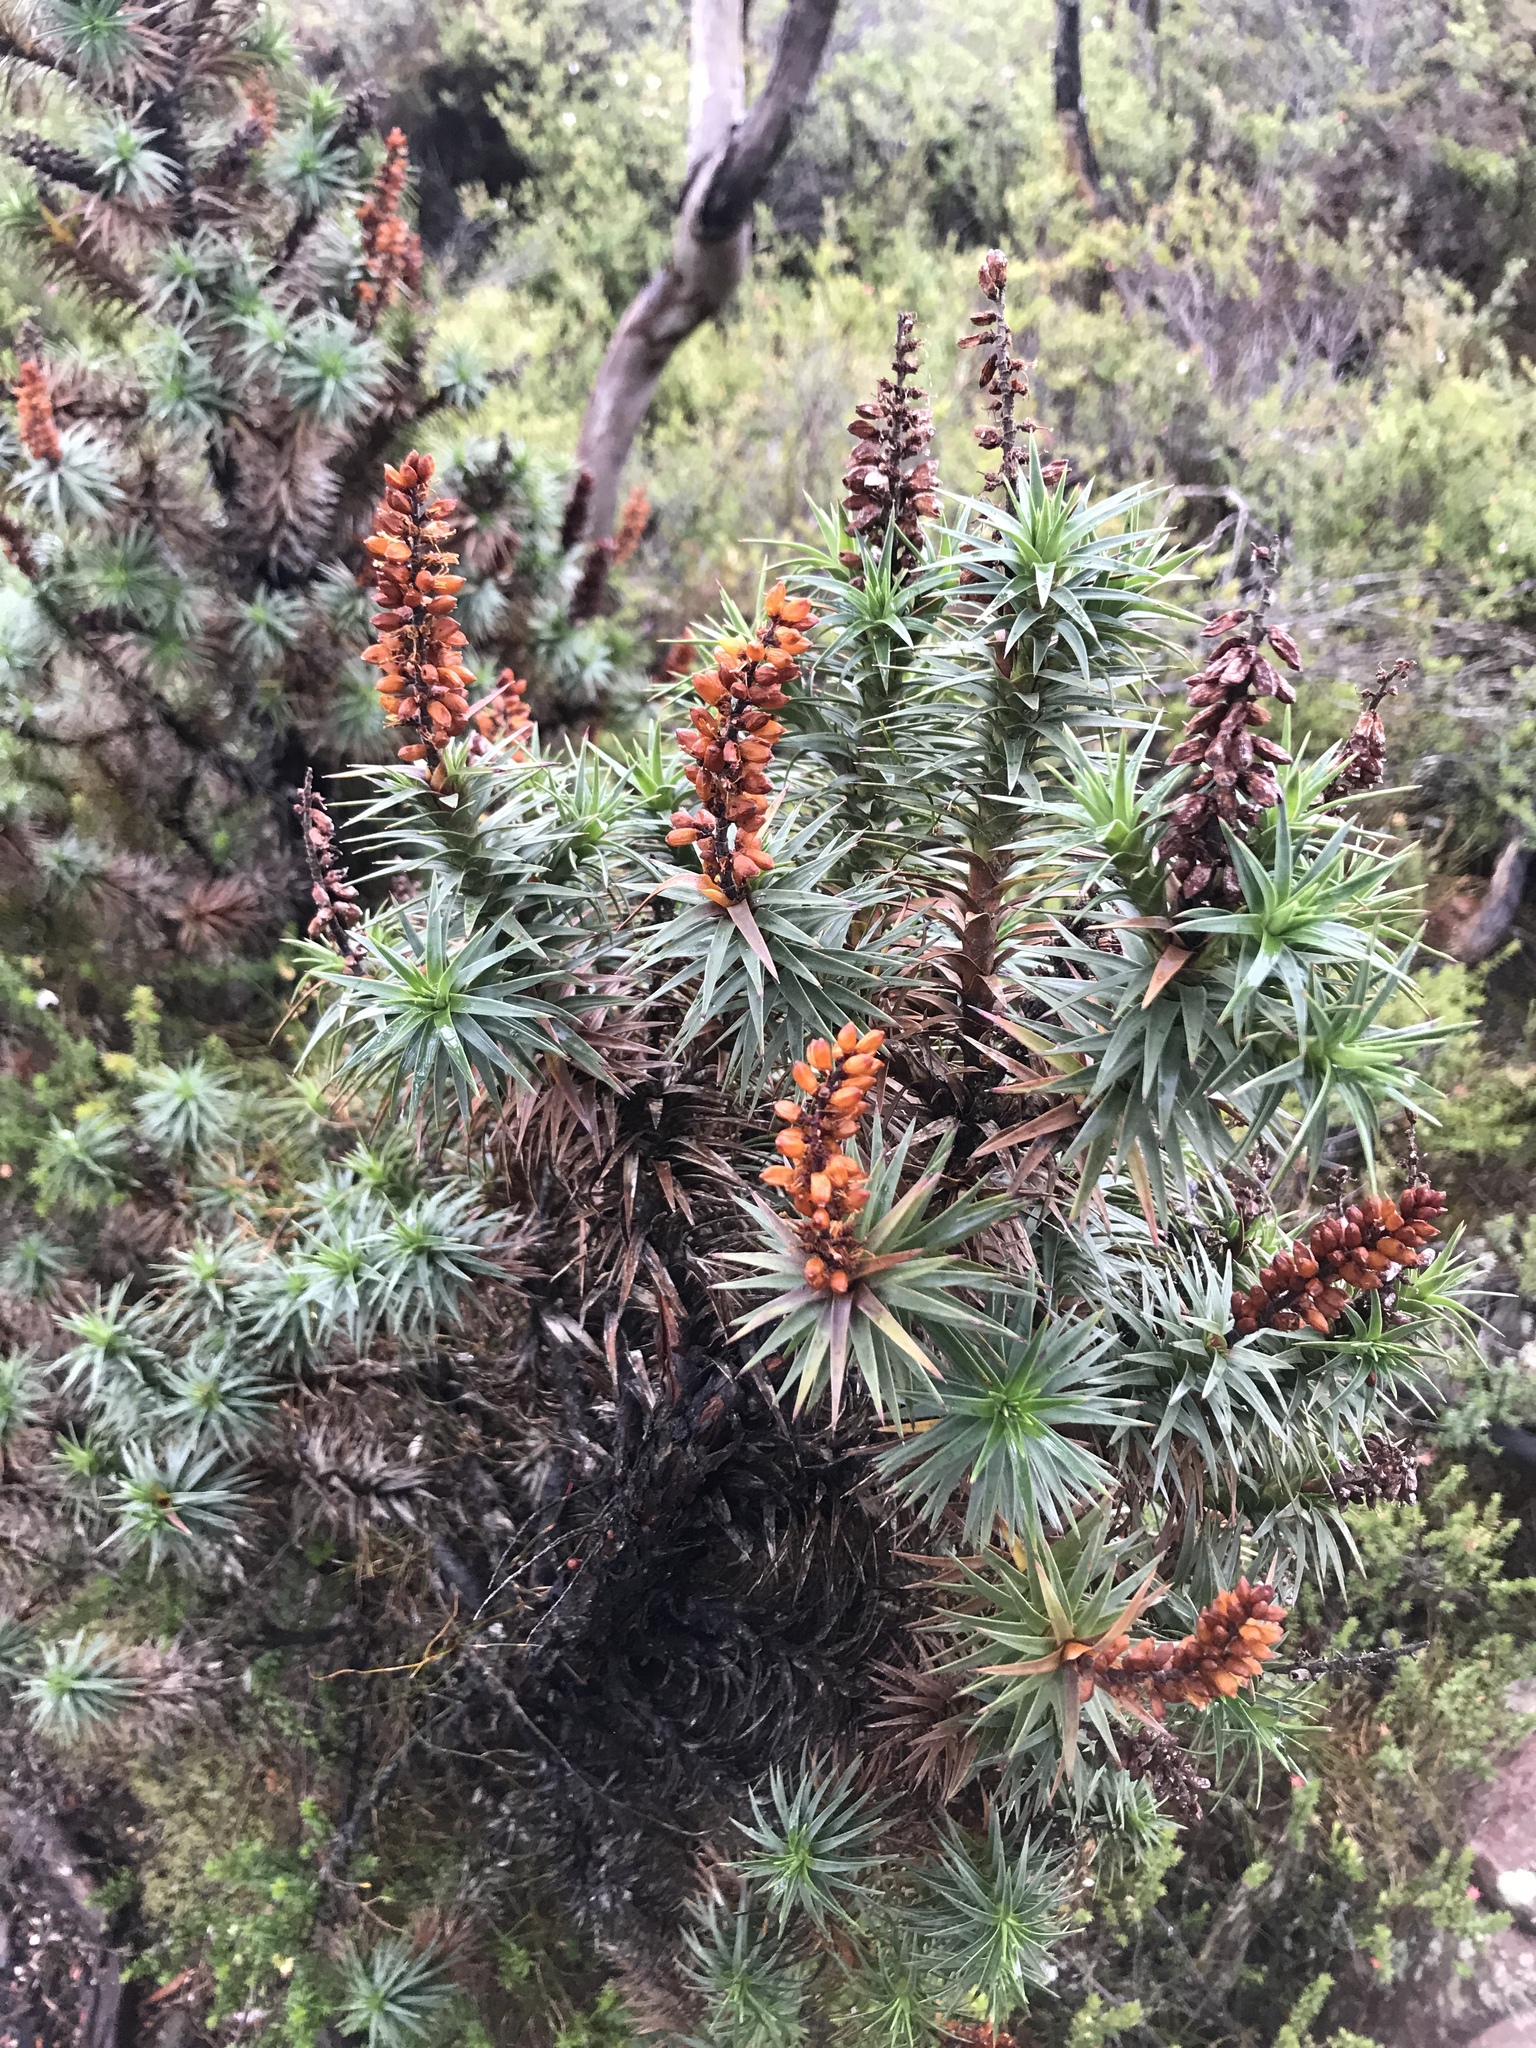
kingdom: Plantae
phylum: Tracheophyta
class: Magnoliopsida
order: Ericales
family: Ericaceae
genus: Dracophyllum
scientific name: Dracophyllum persistentifolium
